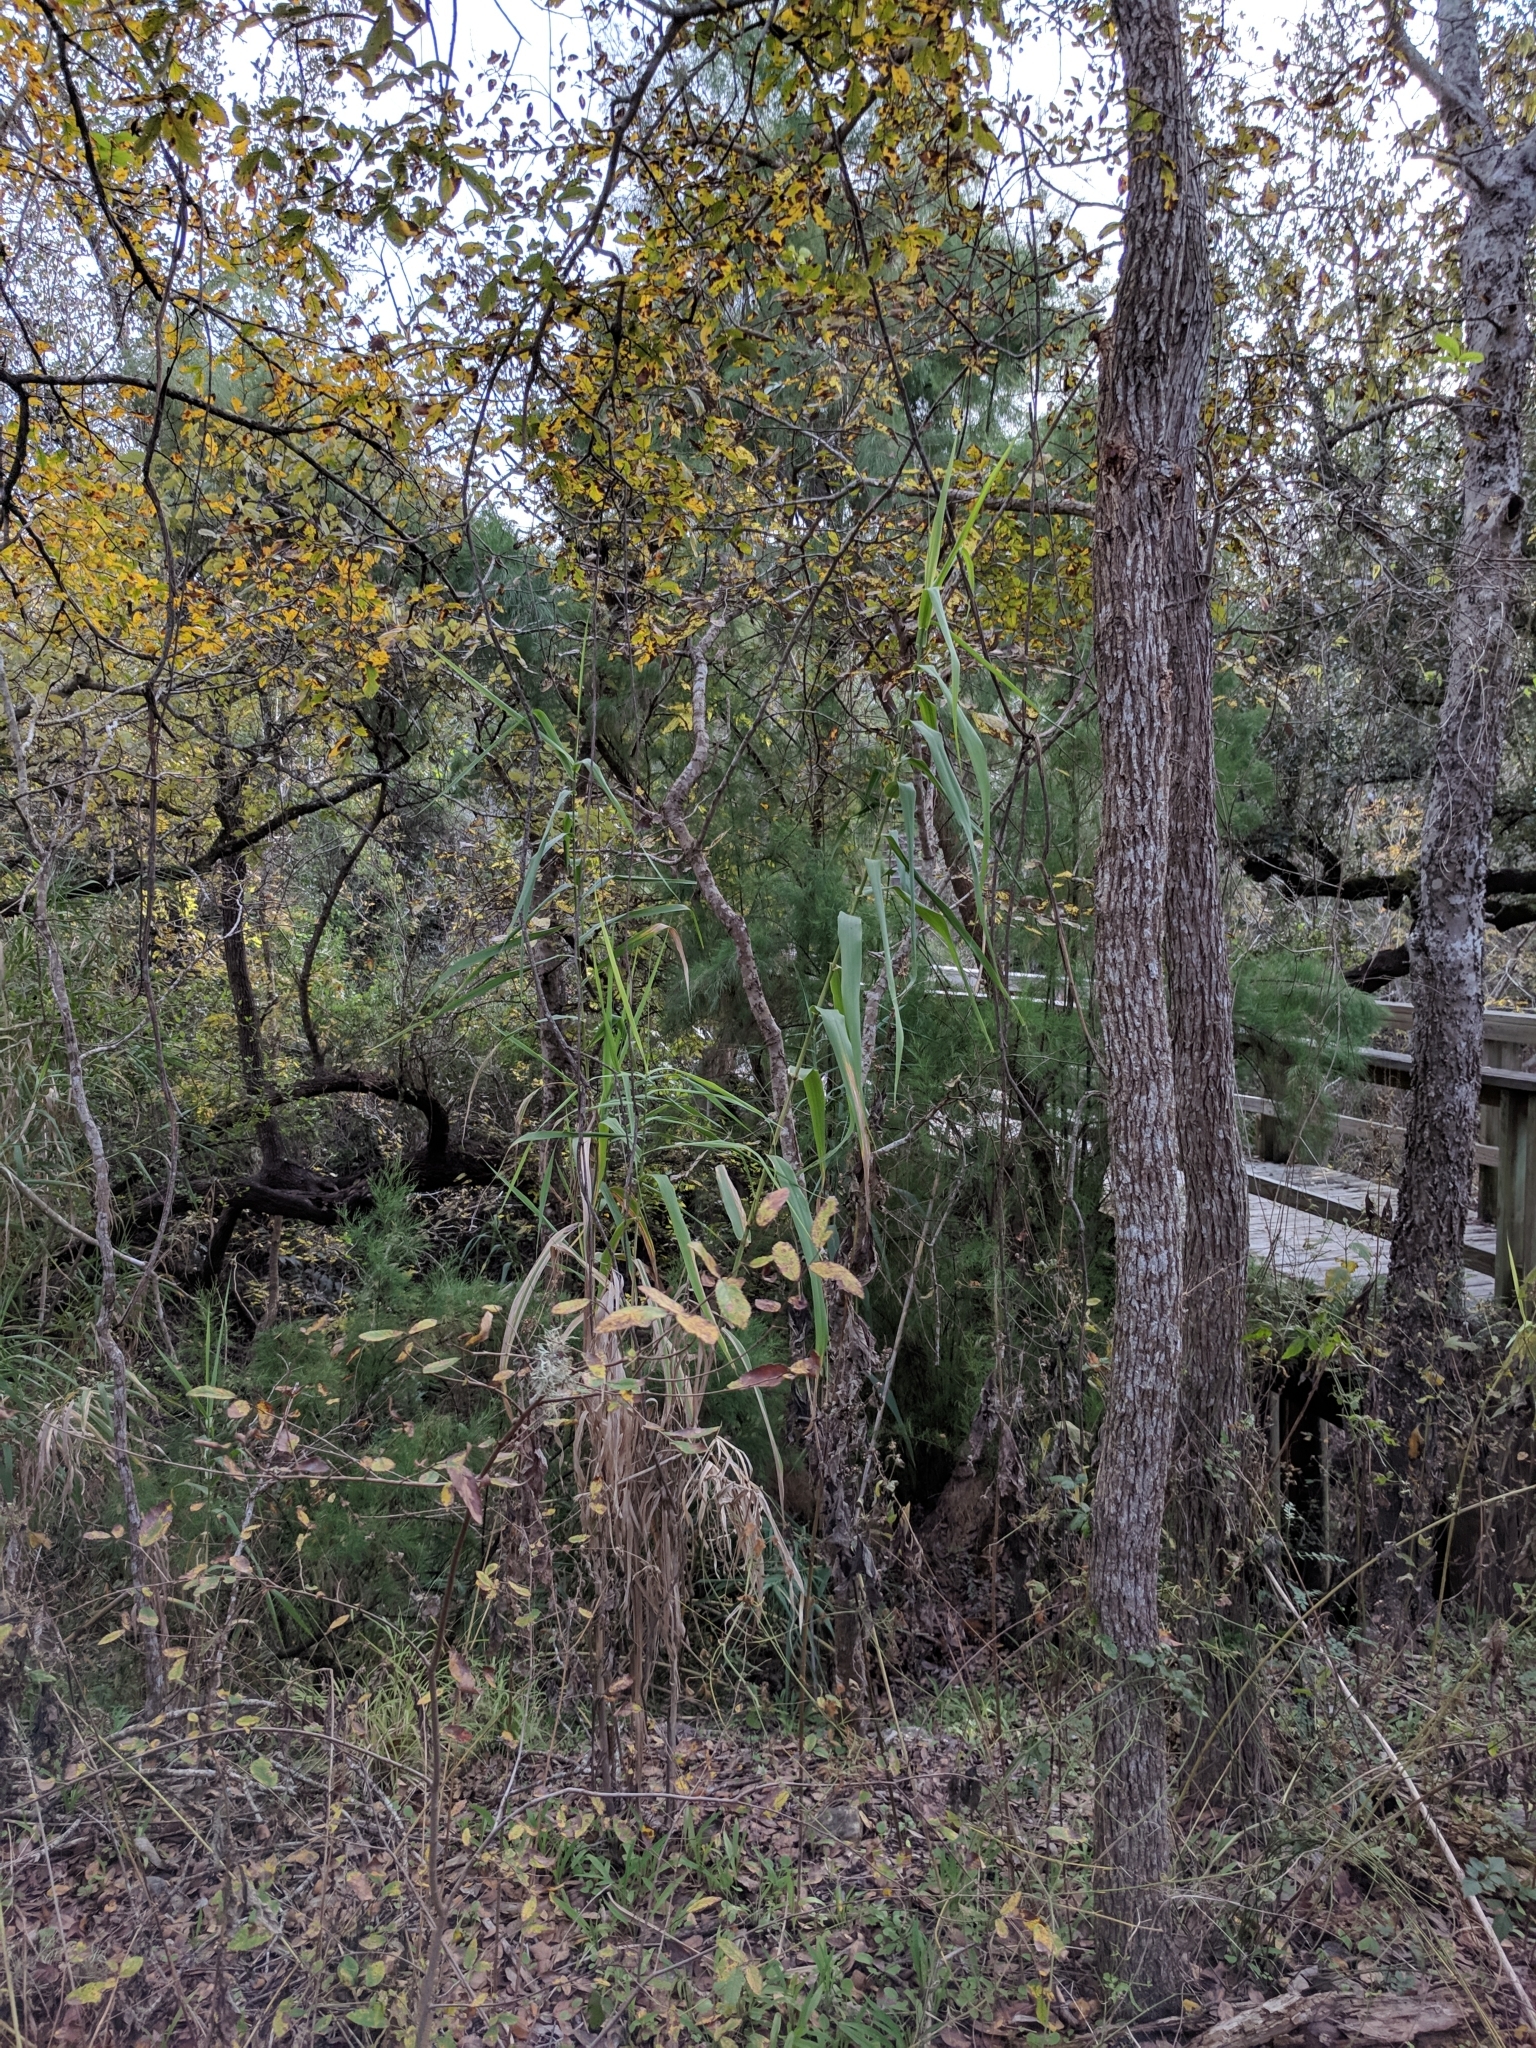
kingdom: Plantae
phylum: Tracheophyta
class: Liliopsida
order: Poales
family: Poaceae
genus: Arundo
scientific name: Arundo donax
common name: Giant reed
